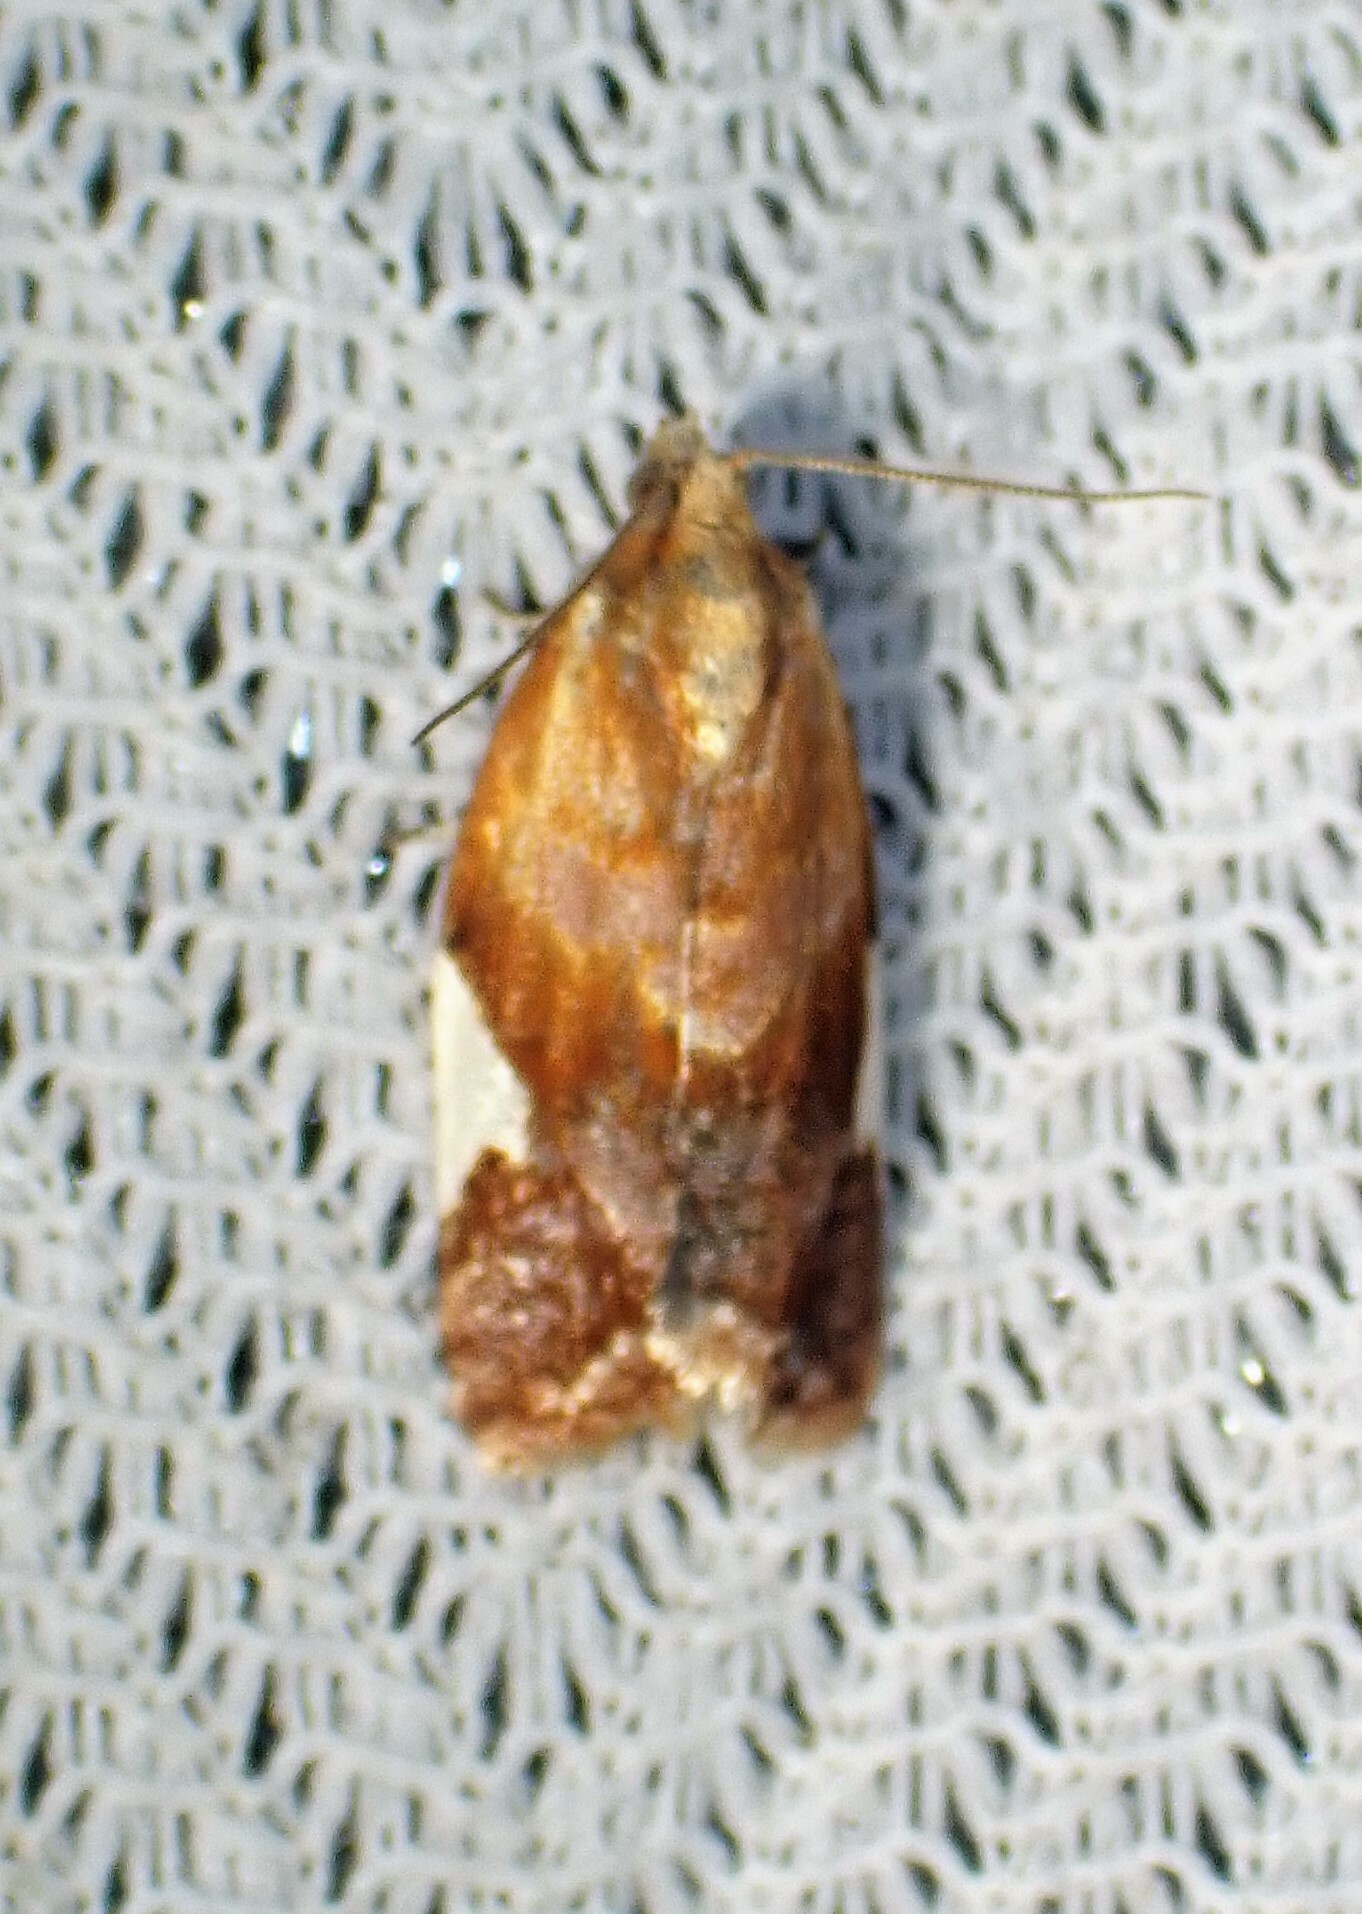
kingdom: Animalia
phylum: Arthropoda
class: Insecta
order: Lepidoptera
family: Tortricidae
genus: Clepsis
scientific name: Clepsis persicana
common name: White triangle tortrix
